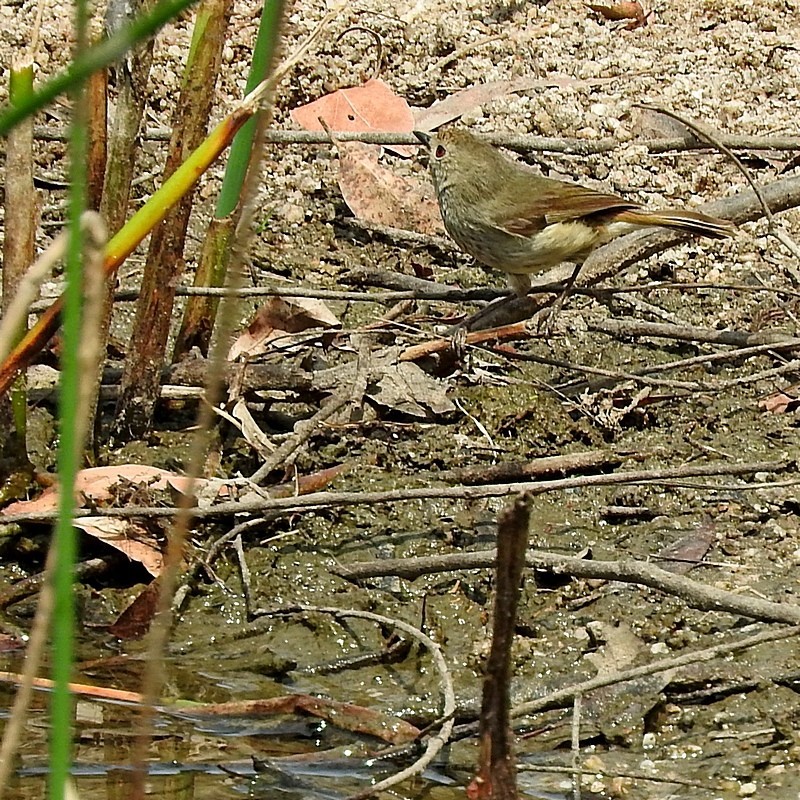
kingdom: Animalia
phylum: Chordata
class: Aves
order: Passeriformes
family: Acanthizidae
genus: Acanthiza
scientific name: Acanthiza pusilla
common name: Brown thornbill
